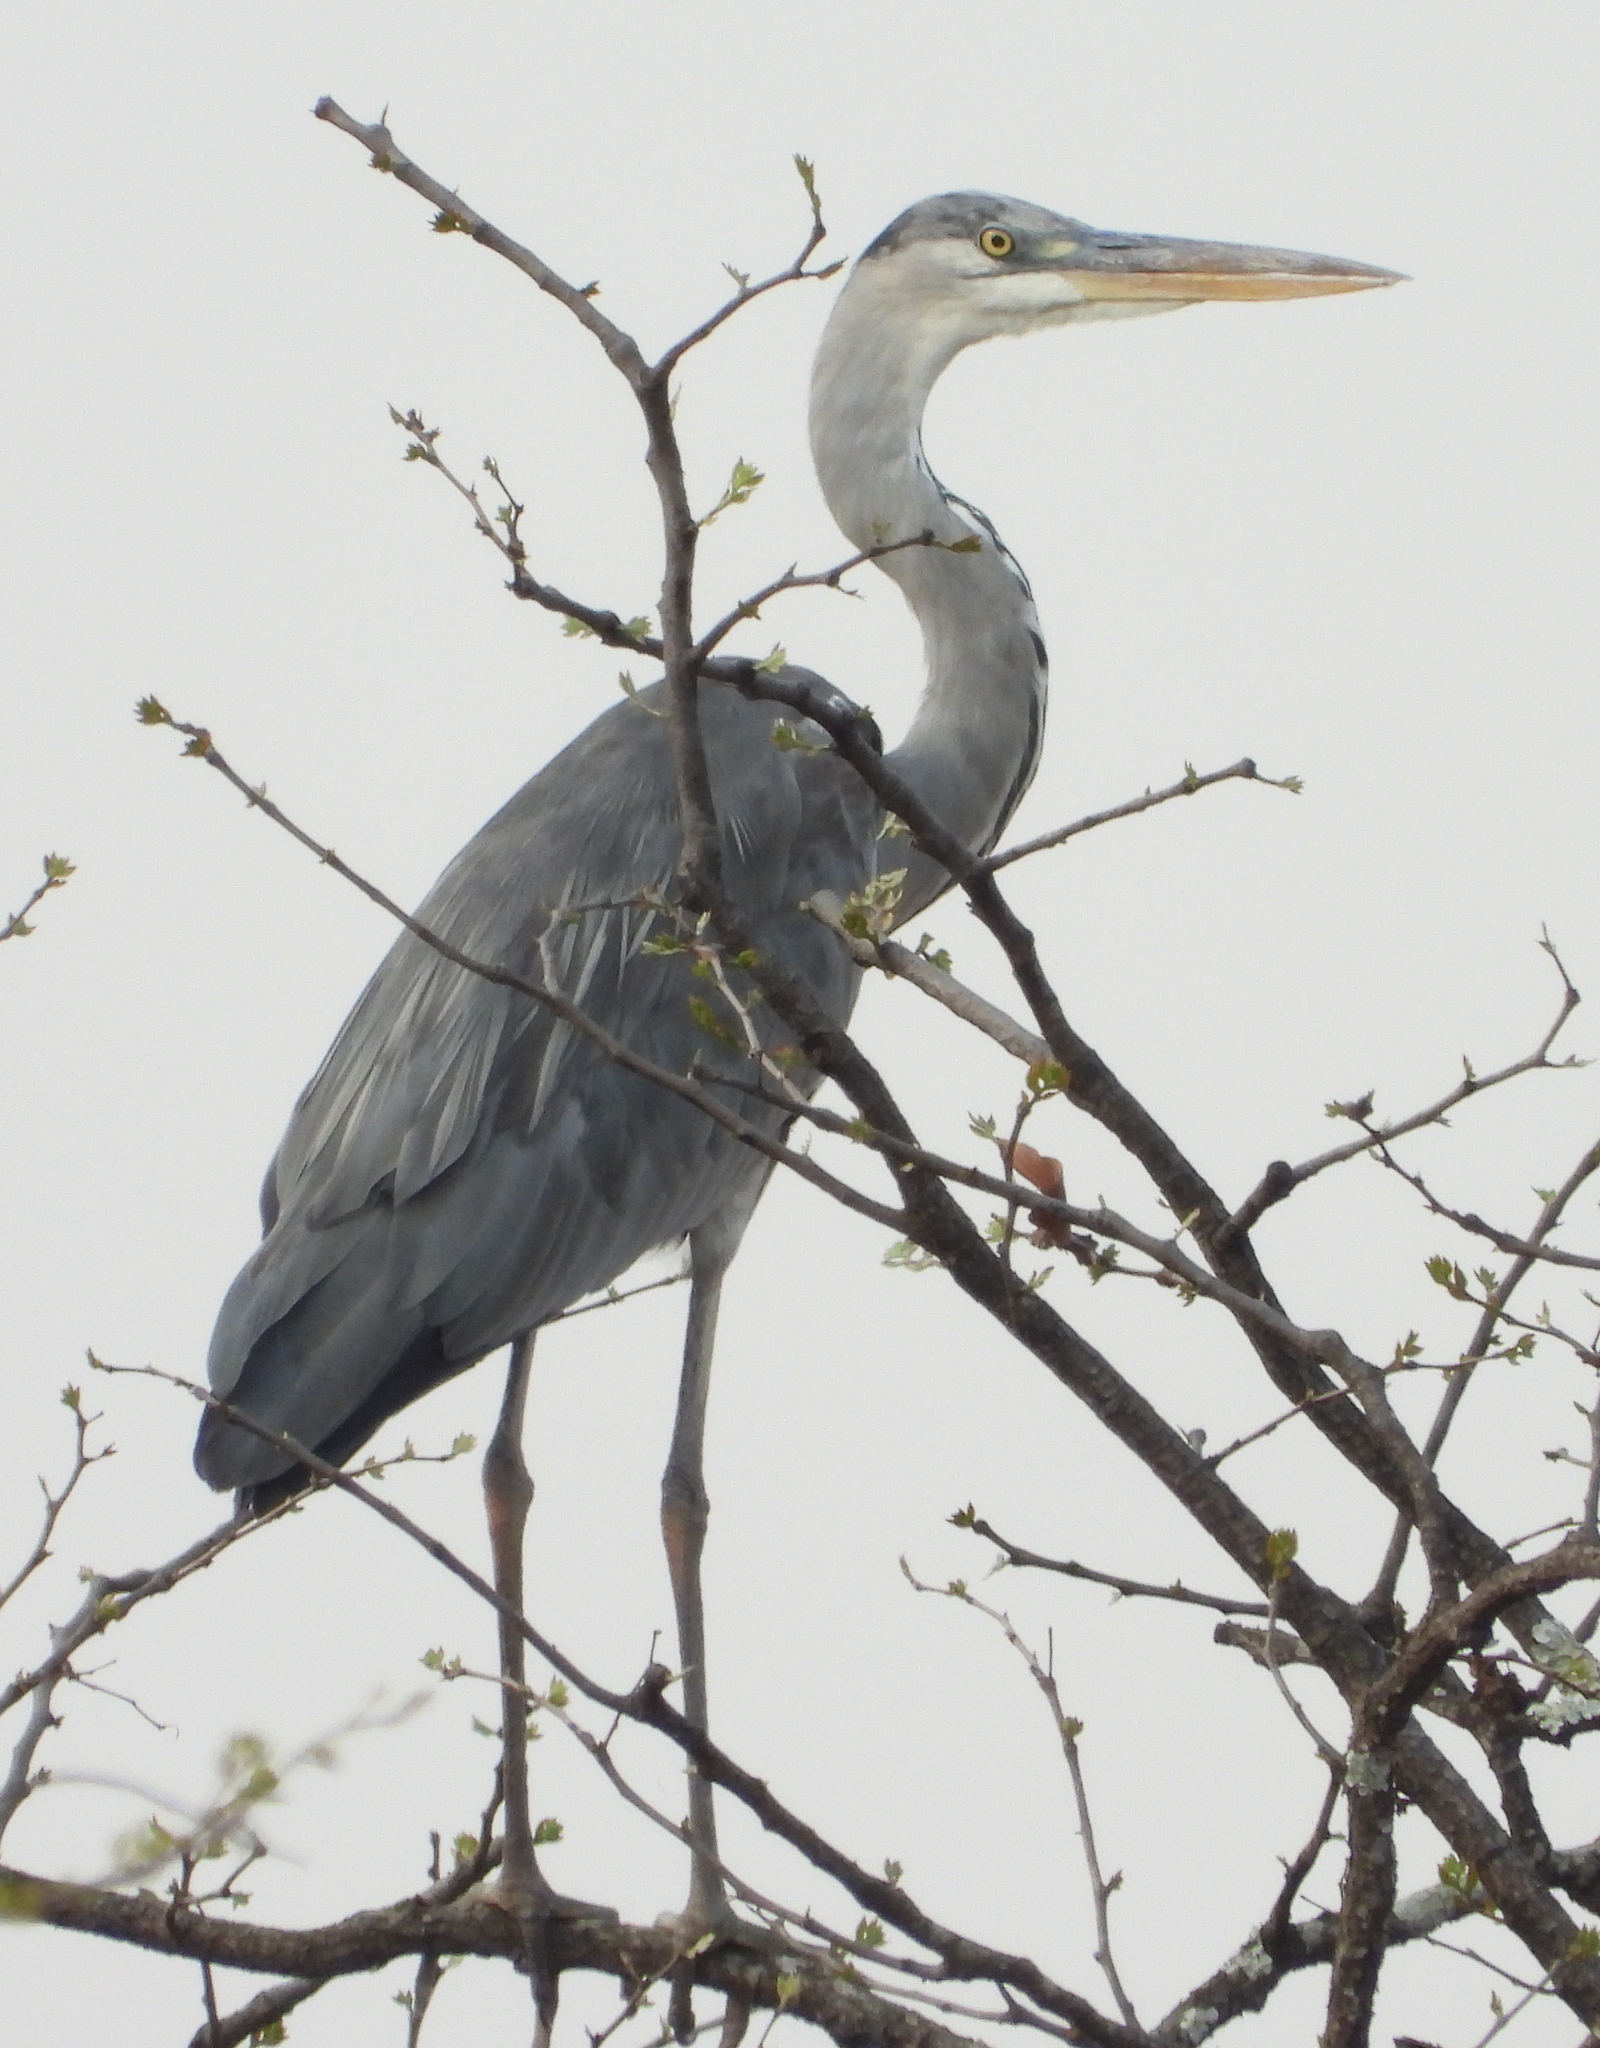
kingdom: Animalia
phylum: Chordata
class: Aves
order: Pelecaniformes
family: Ardeidae
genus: Ardea
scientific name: Ardea cinerea
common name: Grey heron
